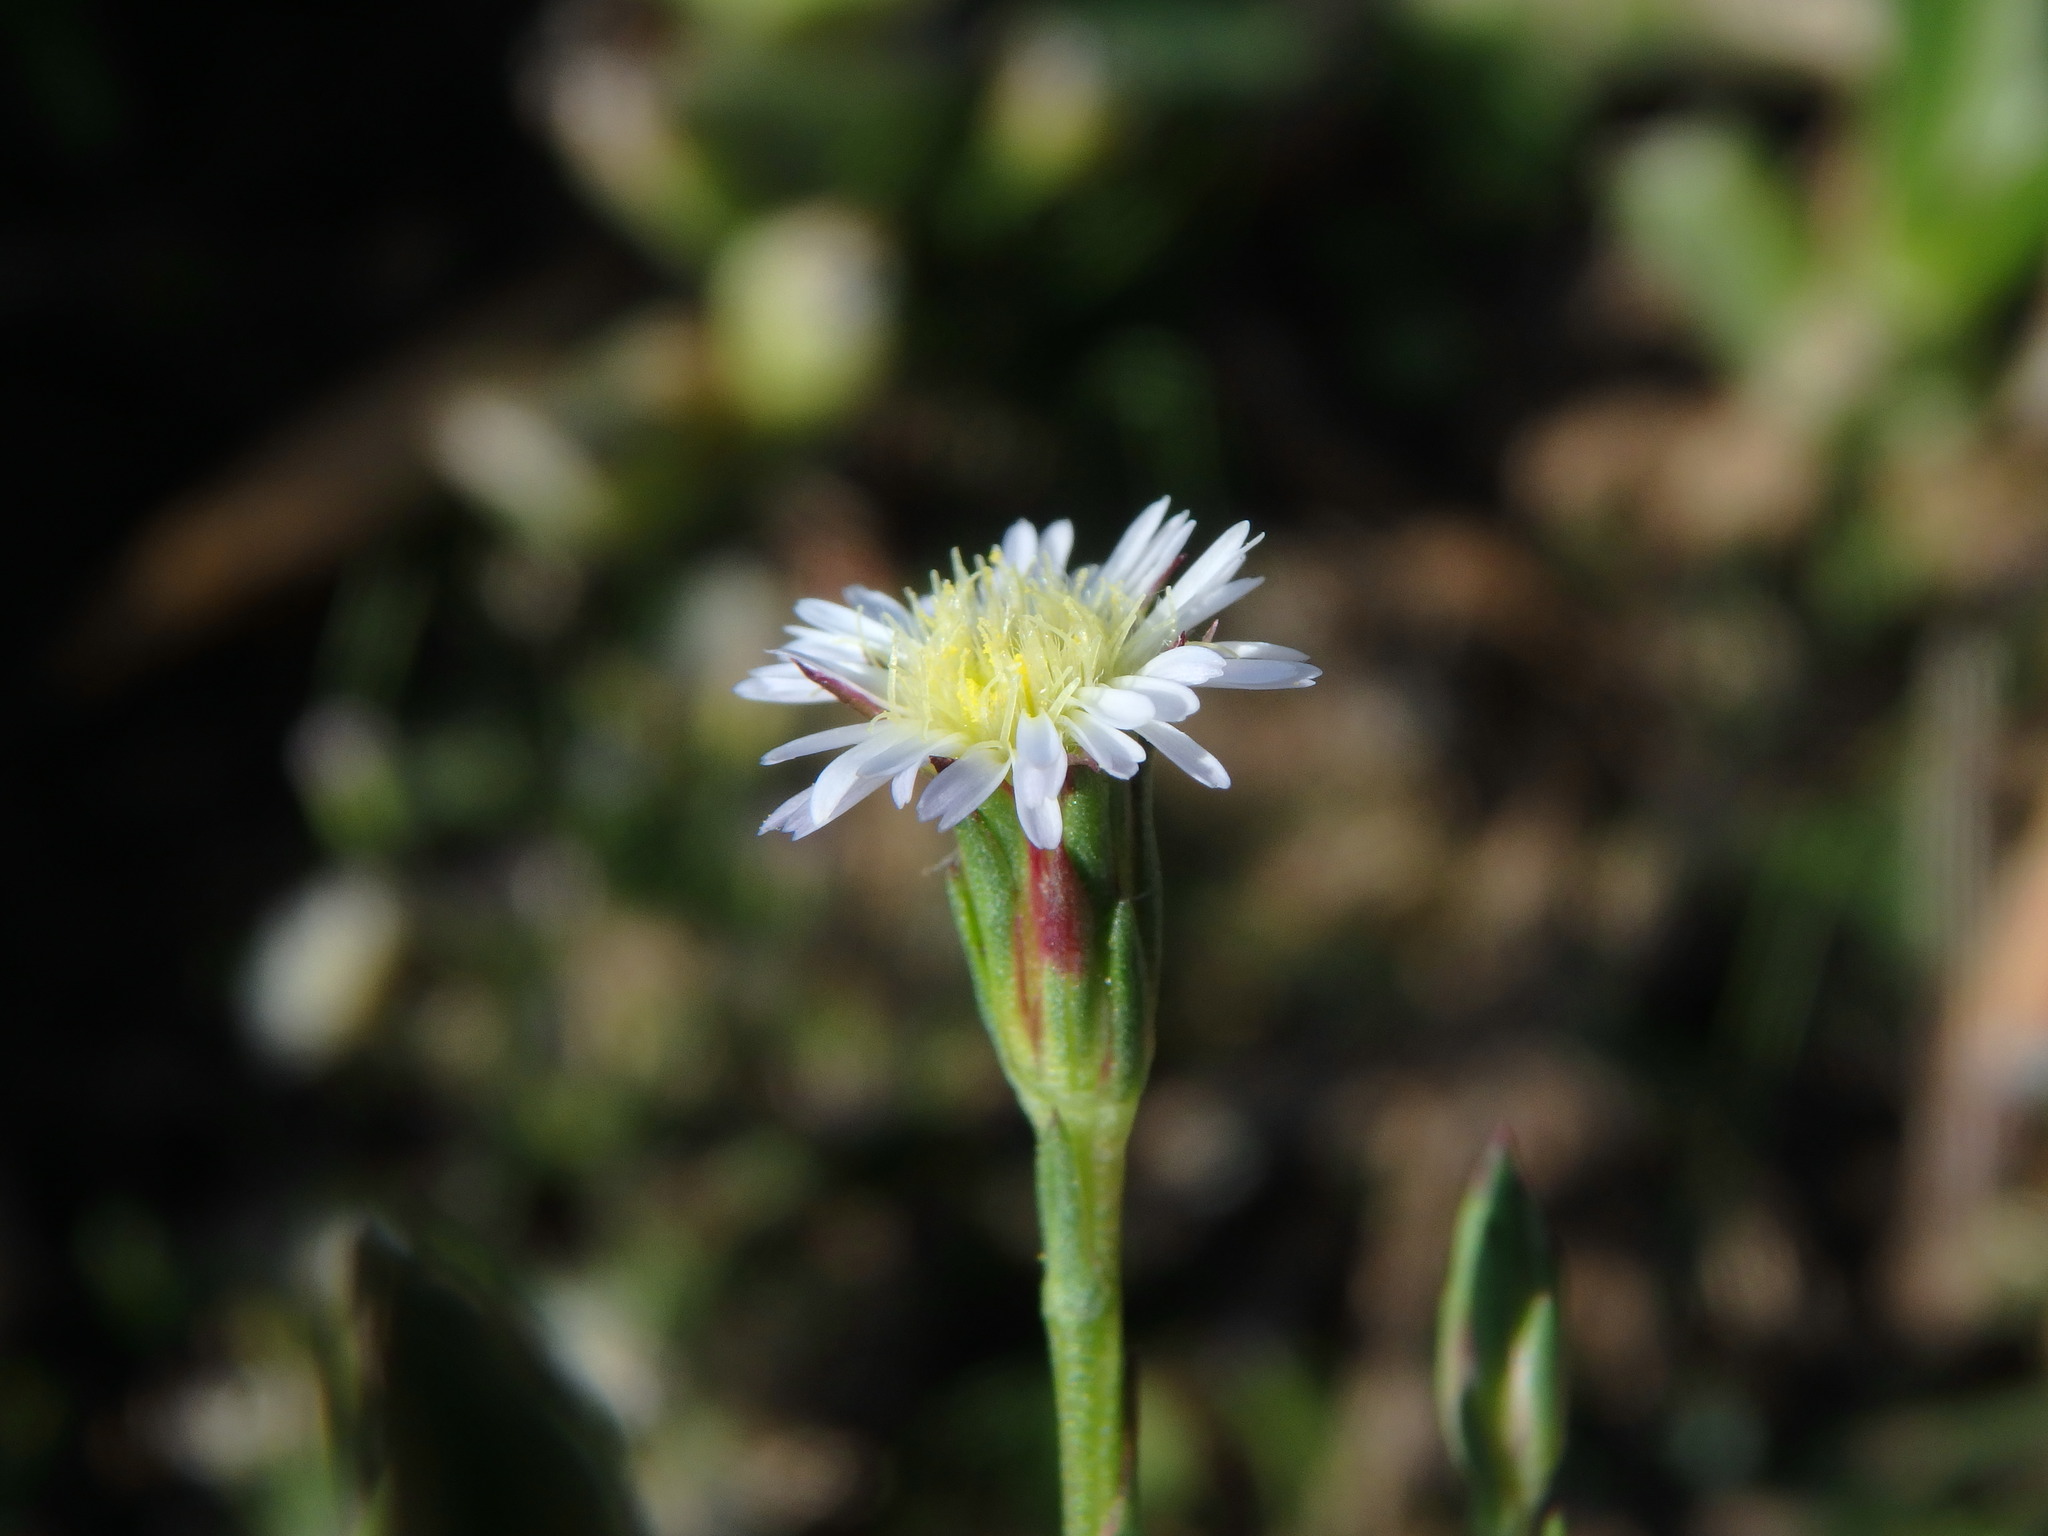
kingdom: Plantae
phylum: Tracheophyta
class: Magnoliopsida
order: Asterales
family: Asteraceae
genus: Symphyotrichum
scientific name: Symphyotrichum squamatum
